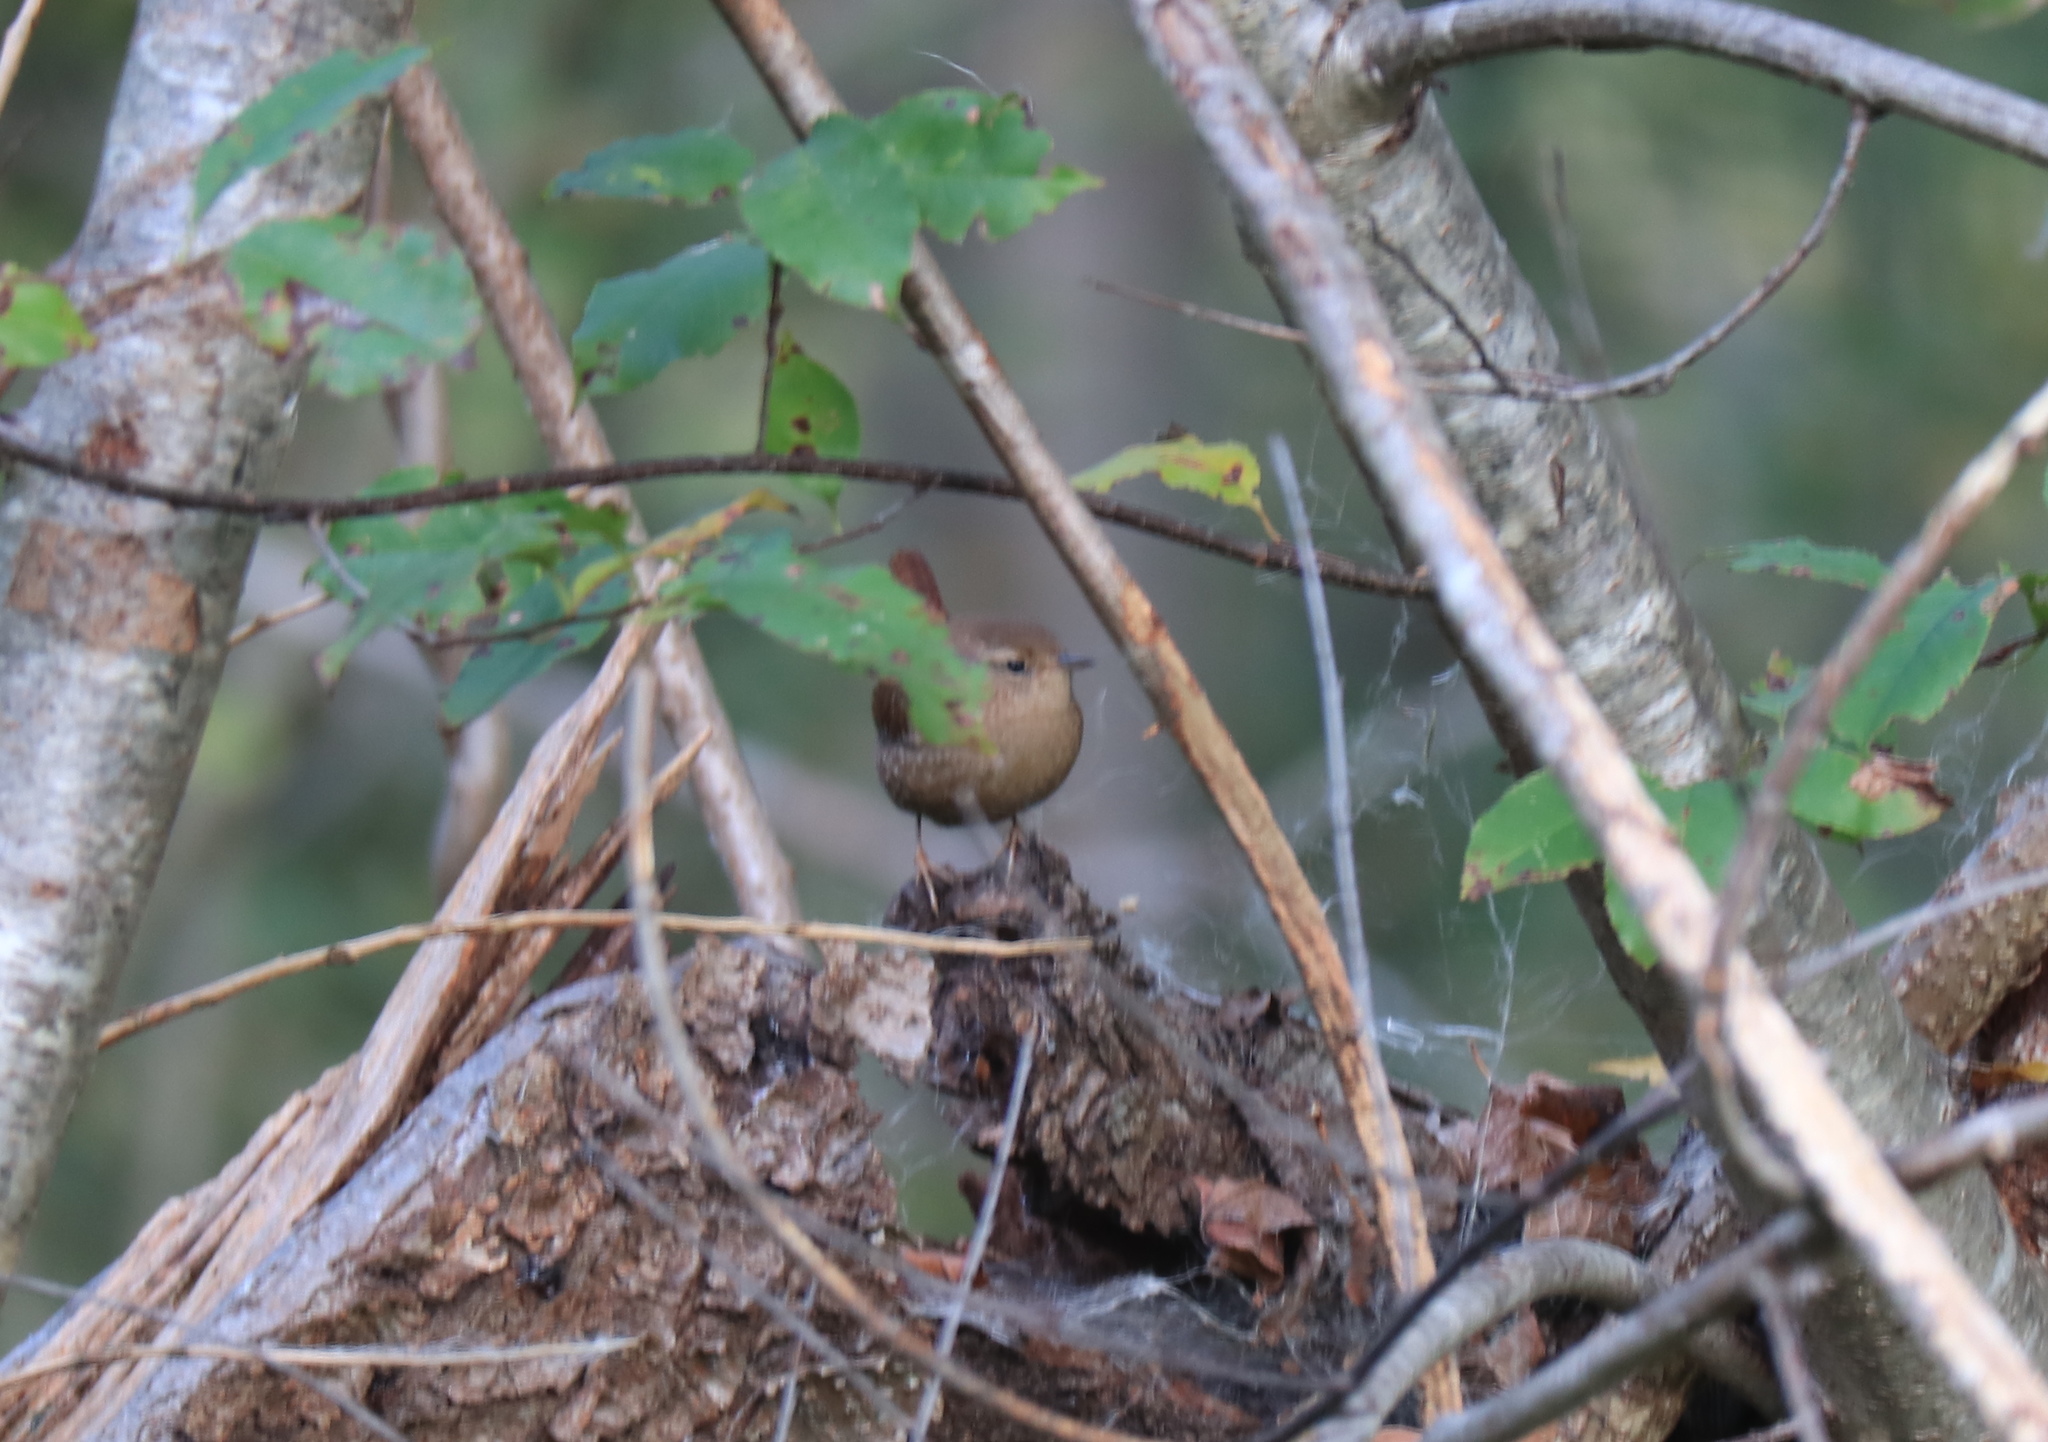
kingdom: Animalia
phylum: Chordata
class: Aves
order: Passeriformes
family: Troglodytidae
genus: Troglodytes
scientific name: Troglodytes hiemalis
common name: Winter wren
